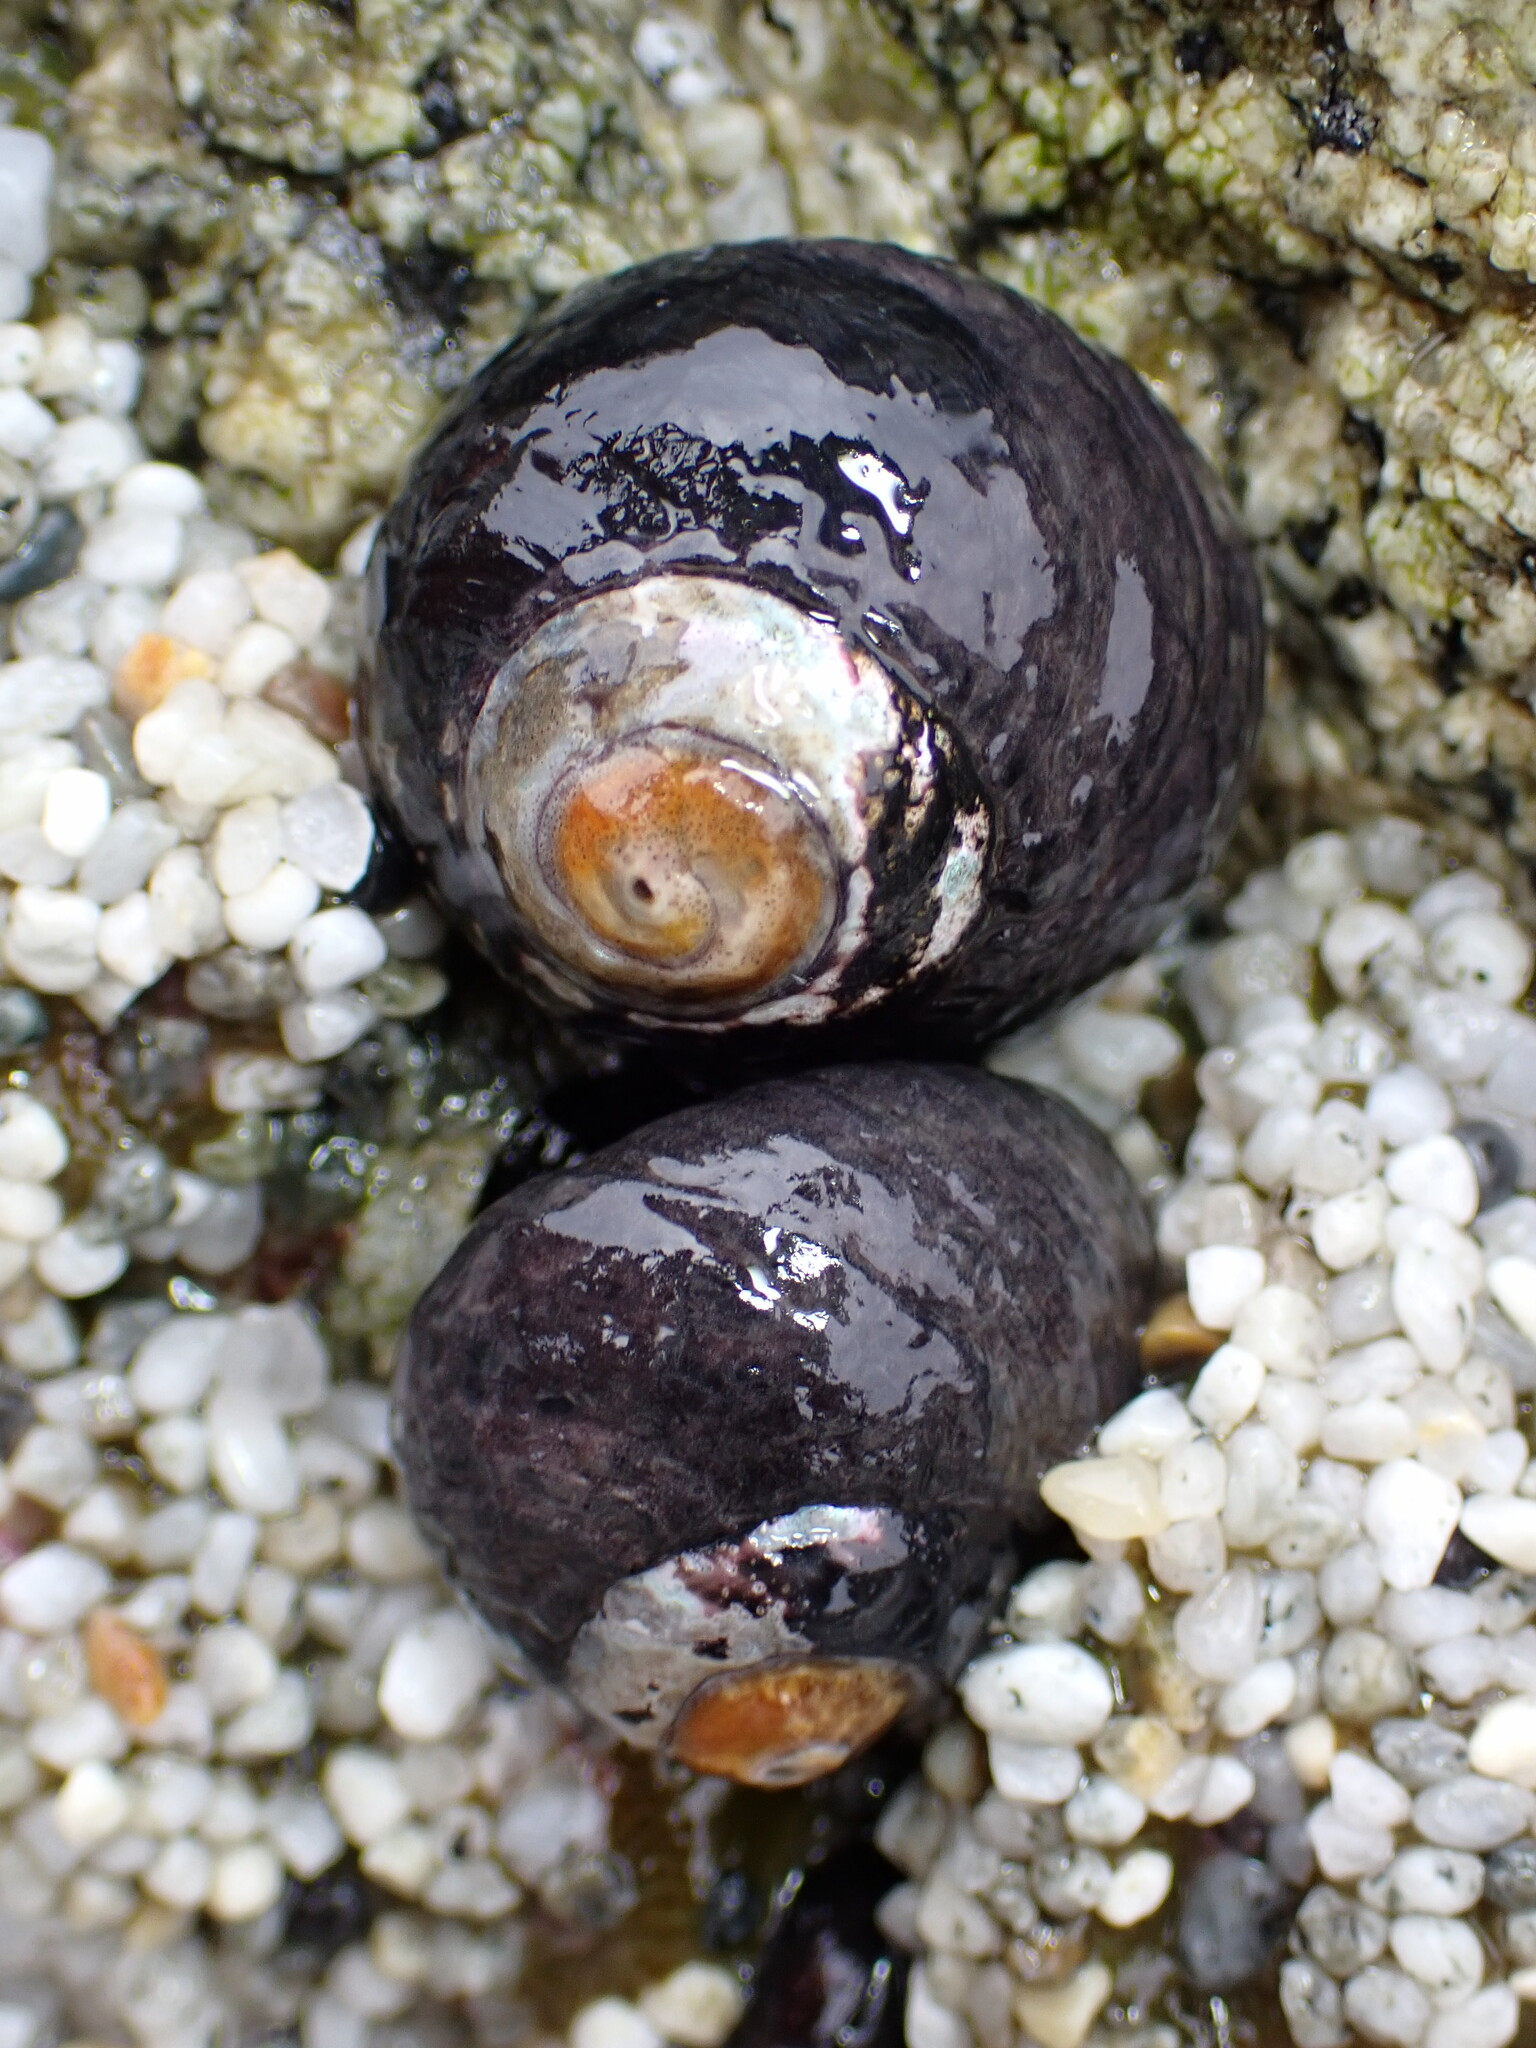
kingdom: Animalia
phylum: Mollusca
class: Gastropoda
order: Trochida
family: Tegulidae
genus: Tegula
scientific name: Tegula funebralis
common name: Black tegula
